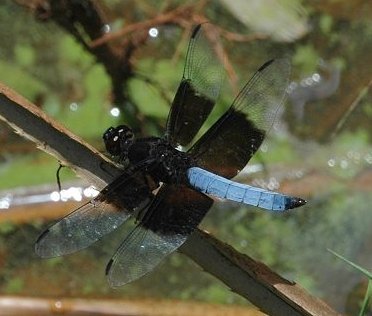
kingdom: Animalia
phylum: Arthropoda
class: Insecta
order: Odonata
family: Libellulidae
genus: Thermorthemis
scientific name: Thermorthemis madagascariensis
